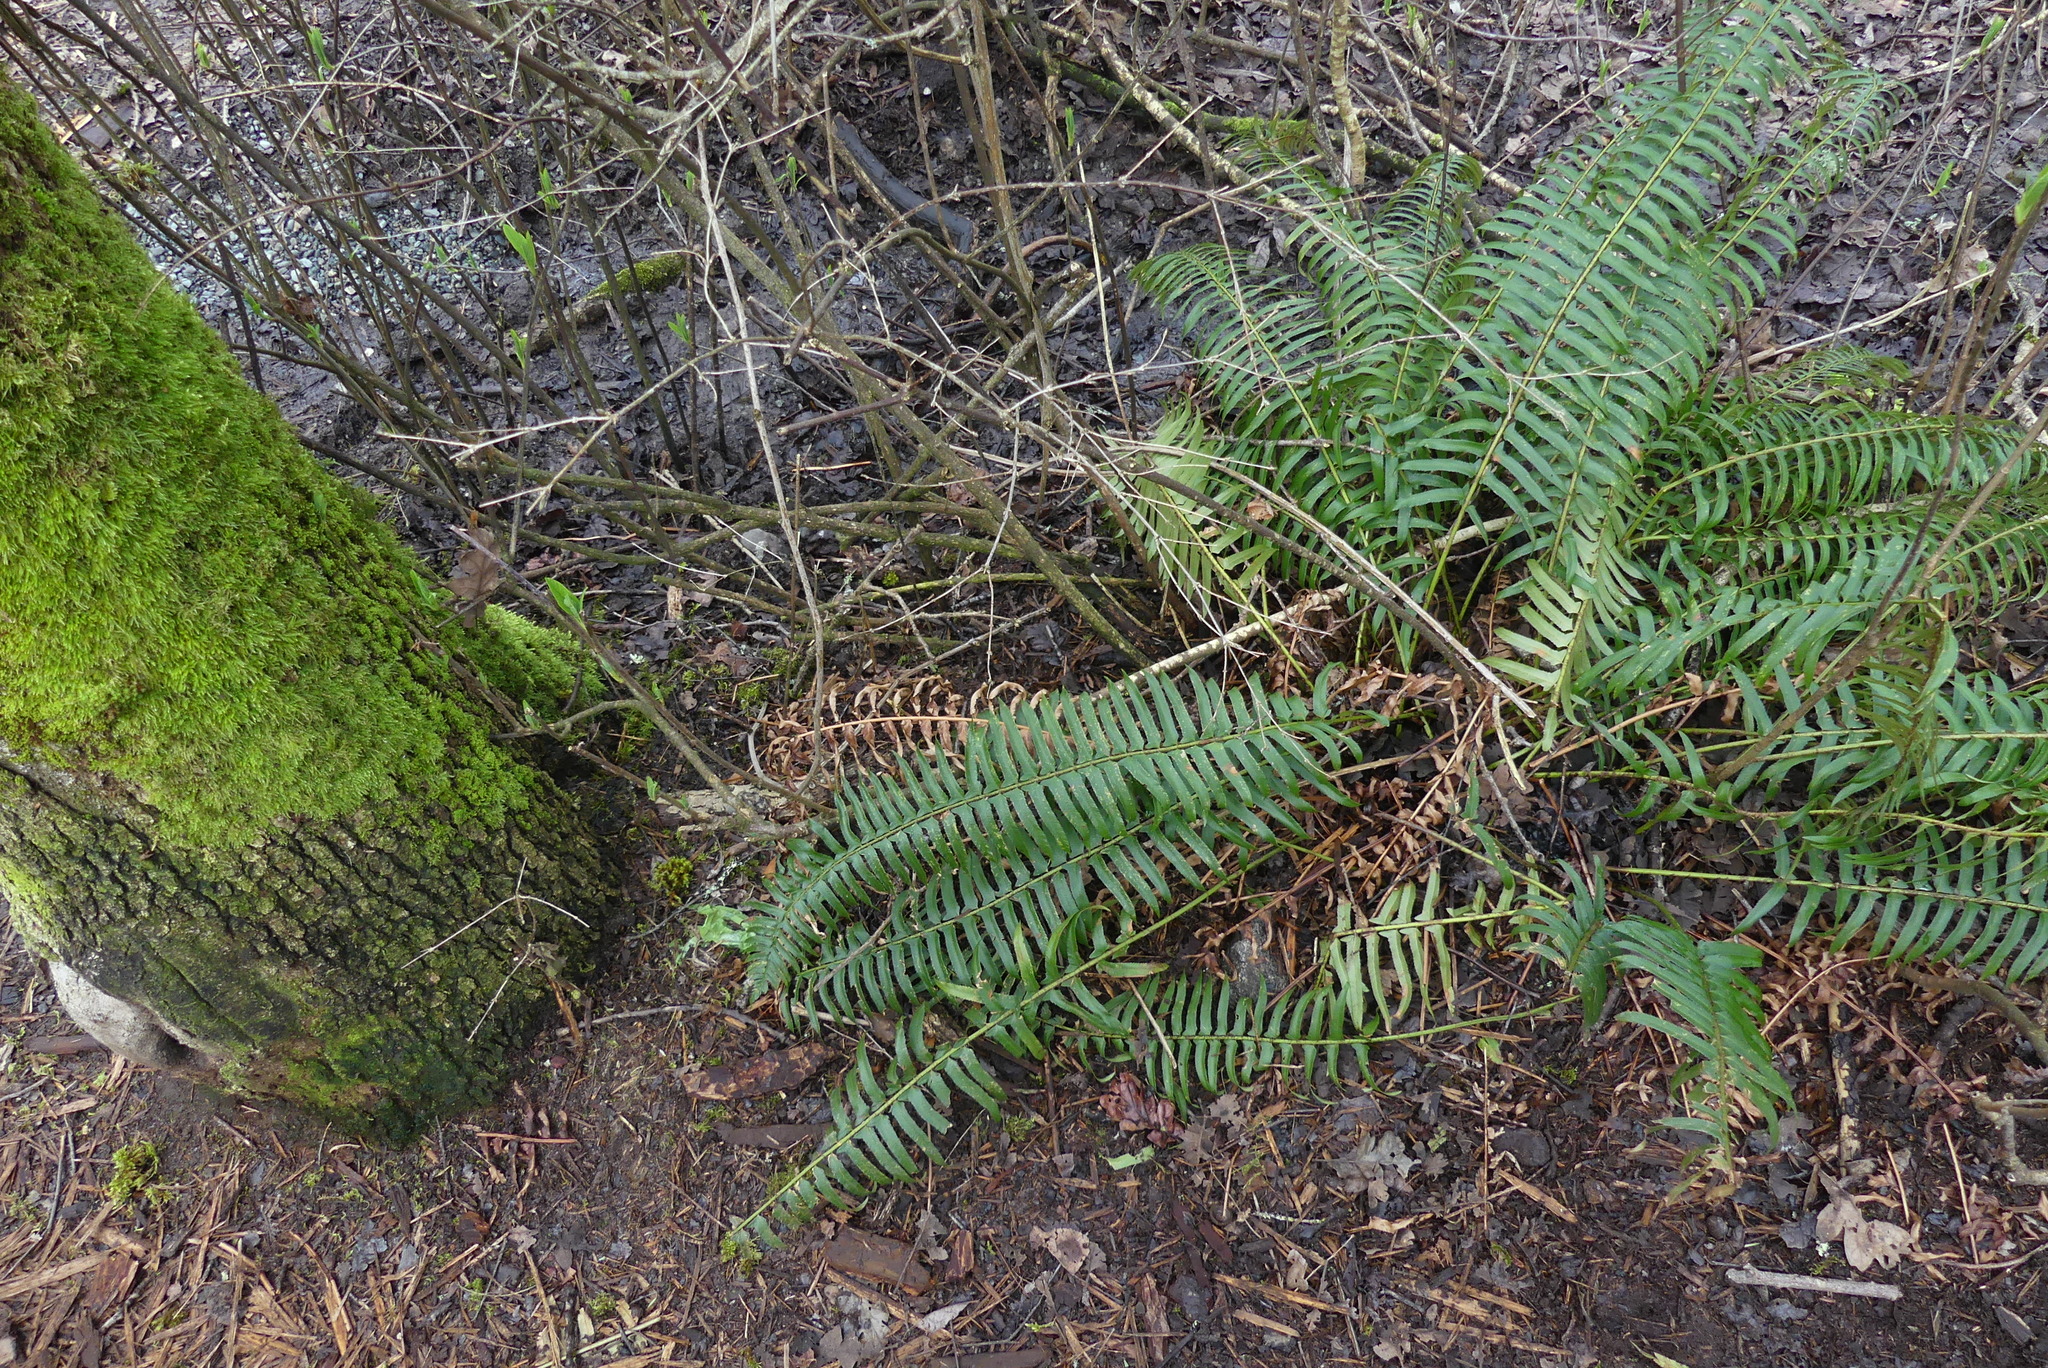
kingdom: Plantae
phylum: Tracheophyta
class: Polypodiopsida
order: Polypodiales
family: Dryopteridaceae
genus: Polystichum
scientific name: Polystichum munitum
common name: Western sword-fern
